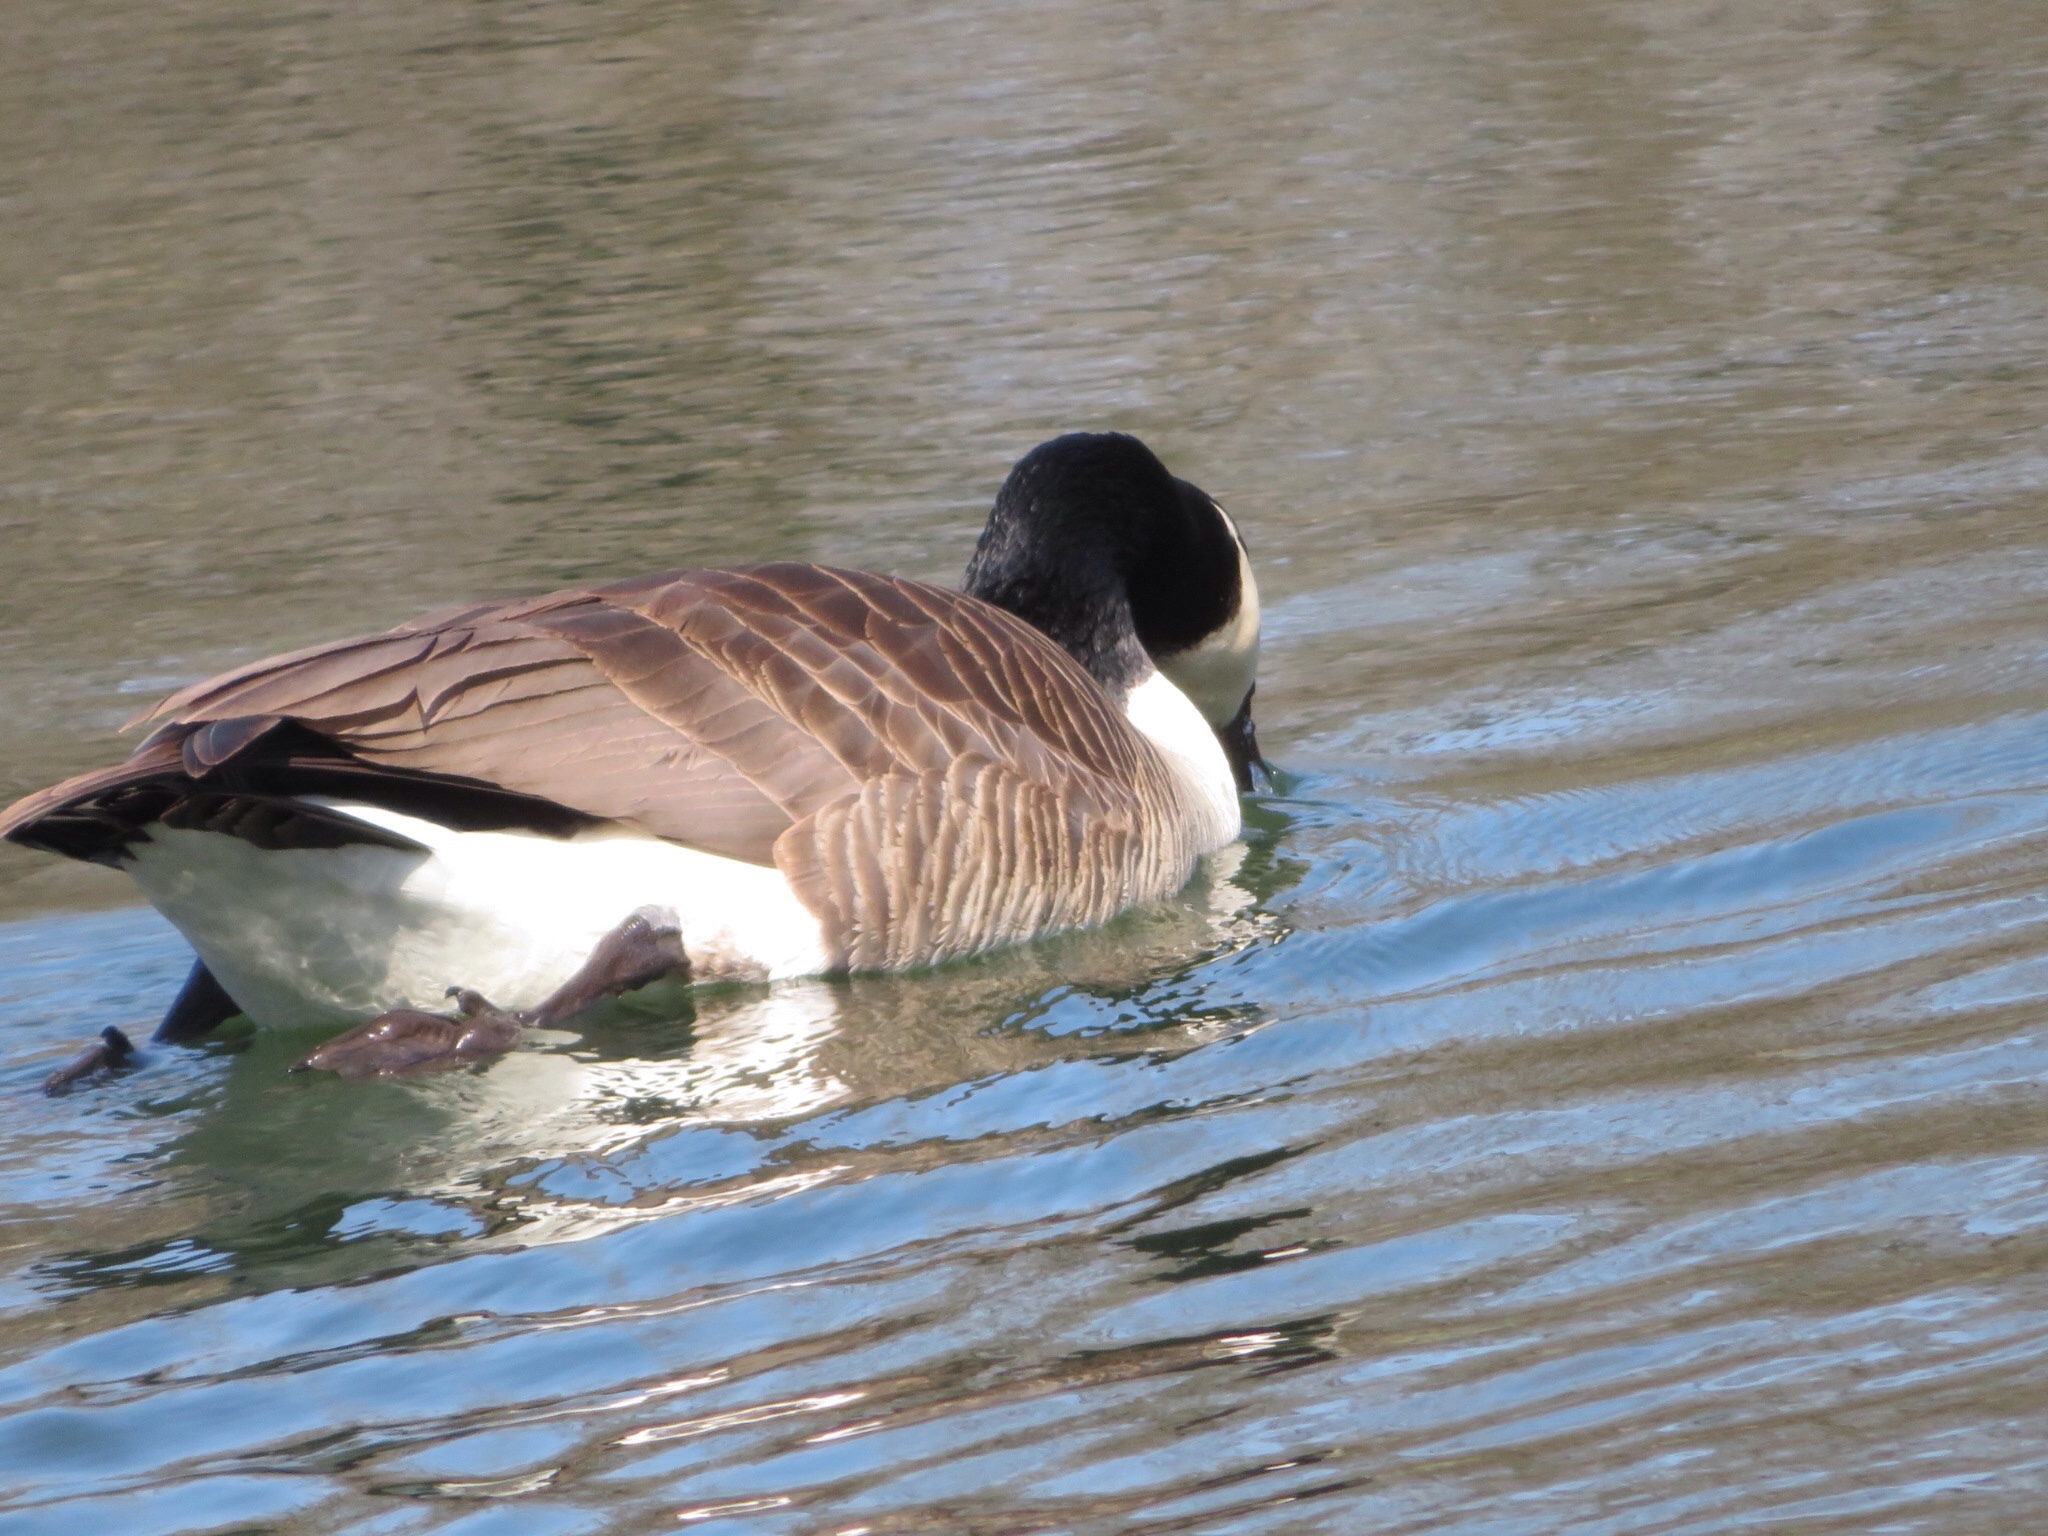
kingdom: Animalia
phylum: Chordata
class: Aves
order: Anseriformes
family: Anatidae
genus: Branta
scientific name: Branta canadensis
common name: Canada goose
